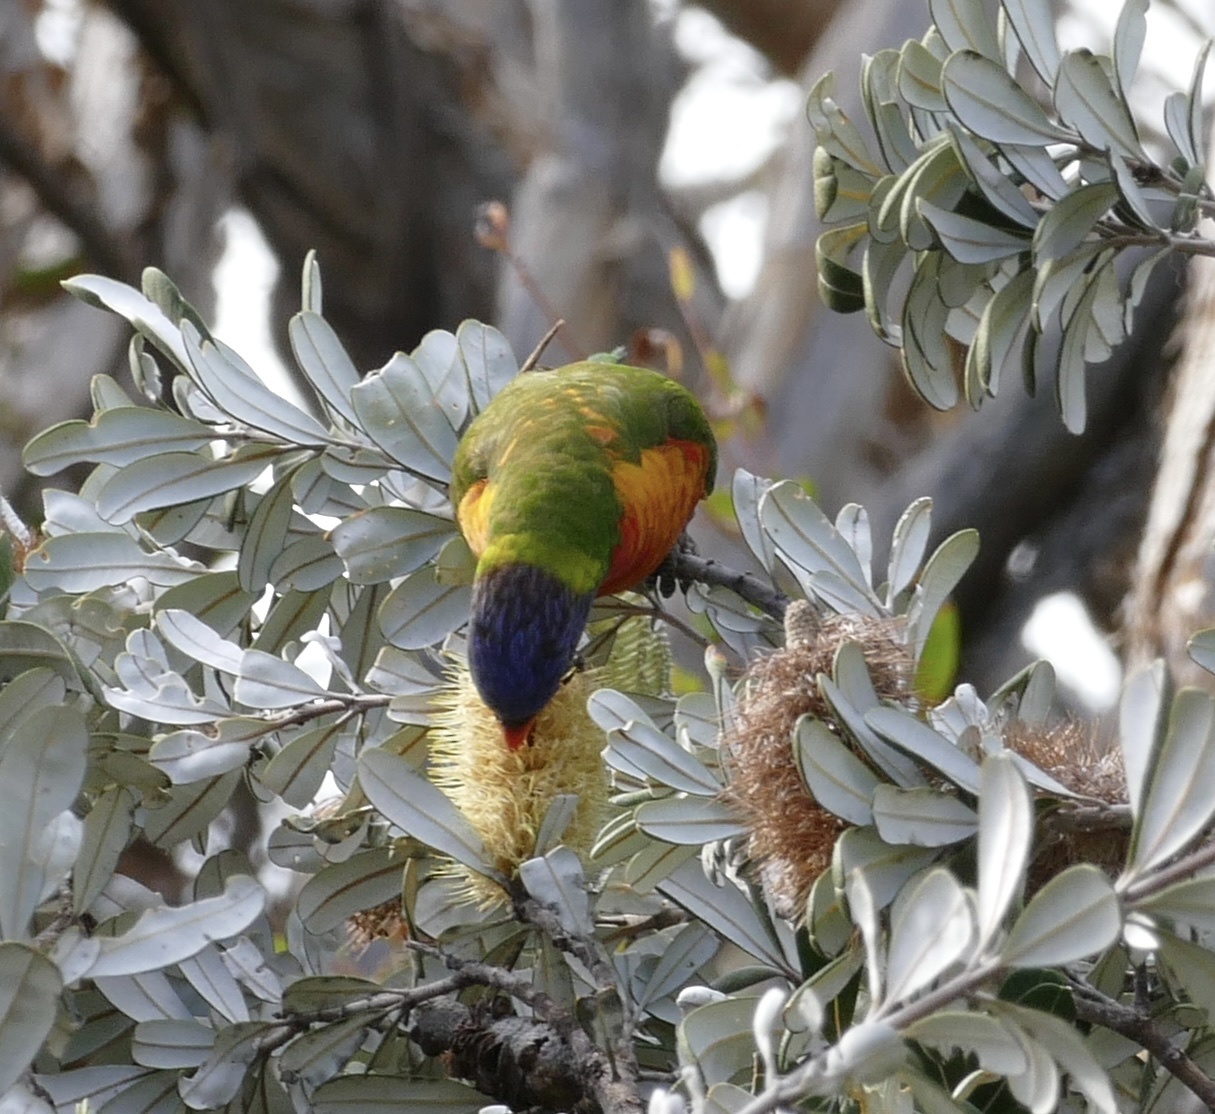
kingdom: Animalia
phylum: Chordata
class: Aves
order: Psittaciformes
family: Psittacidae
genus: Trichoglossus
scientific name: Trichoglossus haematodus
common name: Coconut lorikeet
